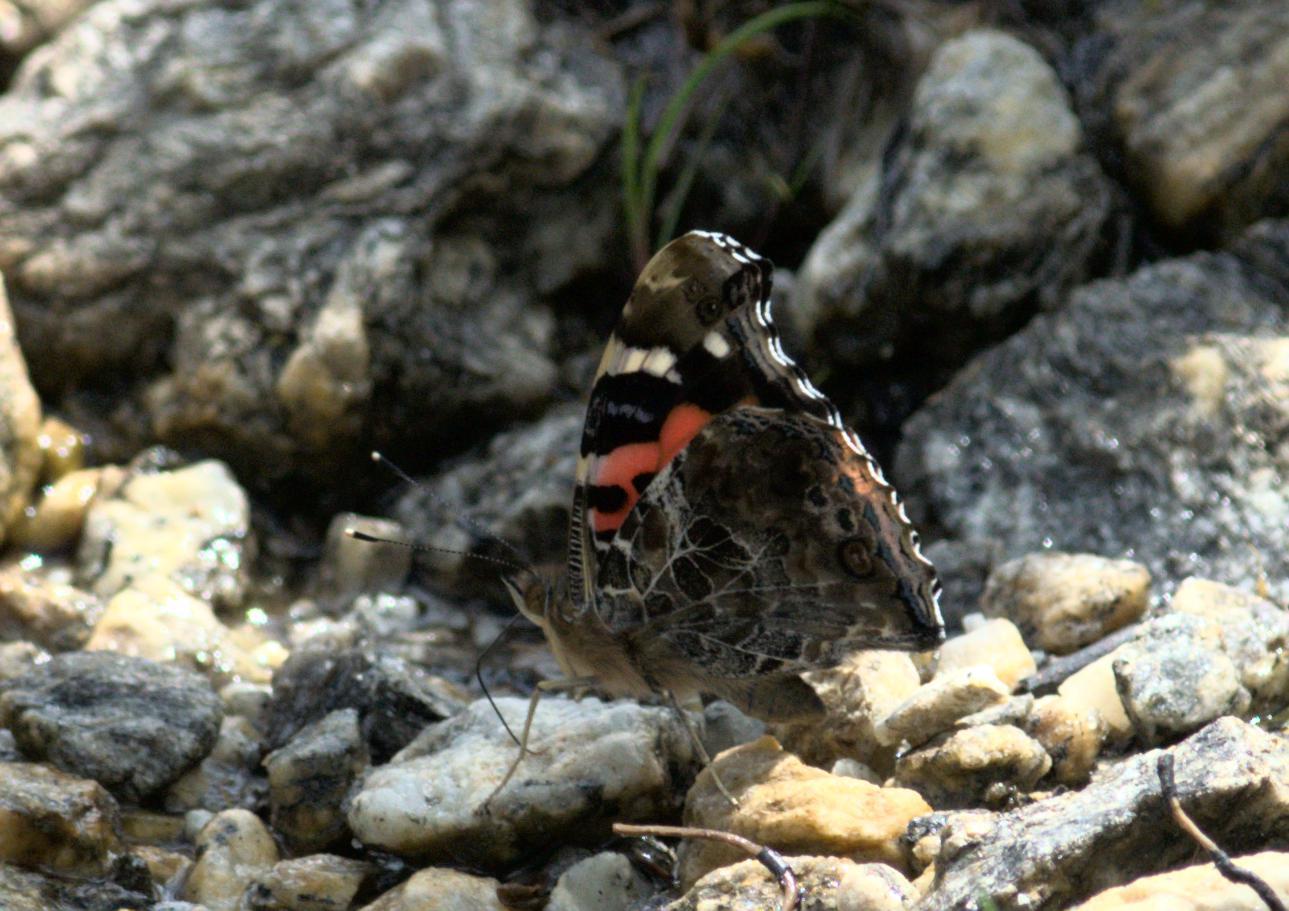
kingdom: Animalia
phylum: Arthropoda
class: Insecta
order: Lepidoptera
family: Nymphalidae
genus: Vanessa
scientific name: Vanessa indica
